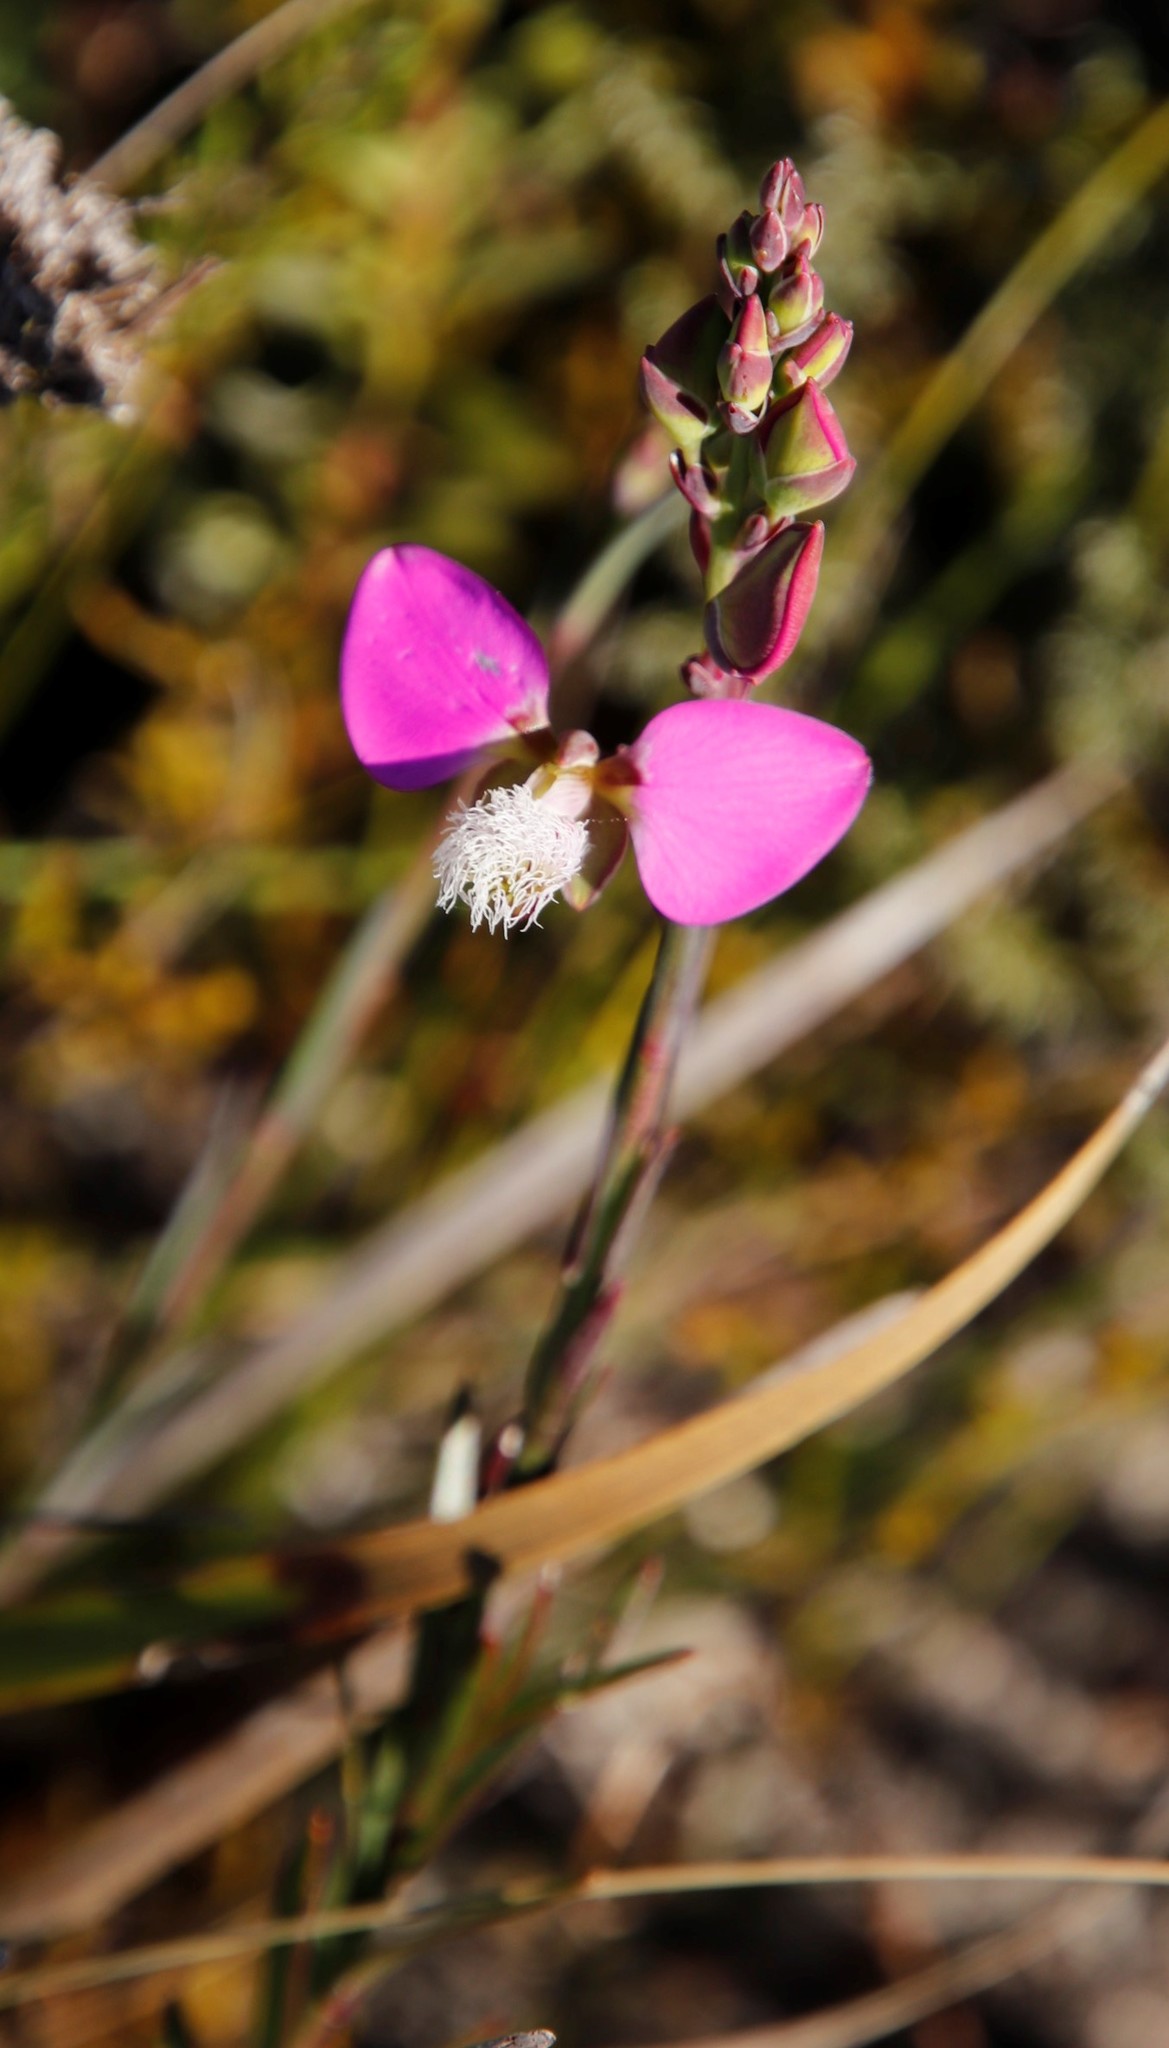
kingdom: Plantae
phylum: Tracheophyta
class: Magnoliopsida
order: Fabales
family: Polygalaceae
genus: Polygala
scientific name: Polygala bracteolata
